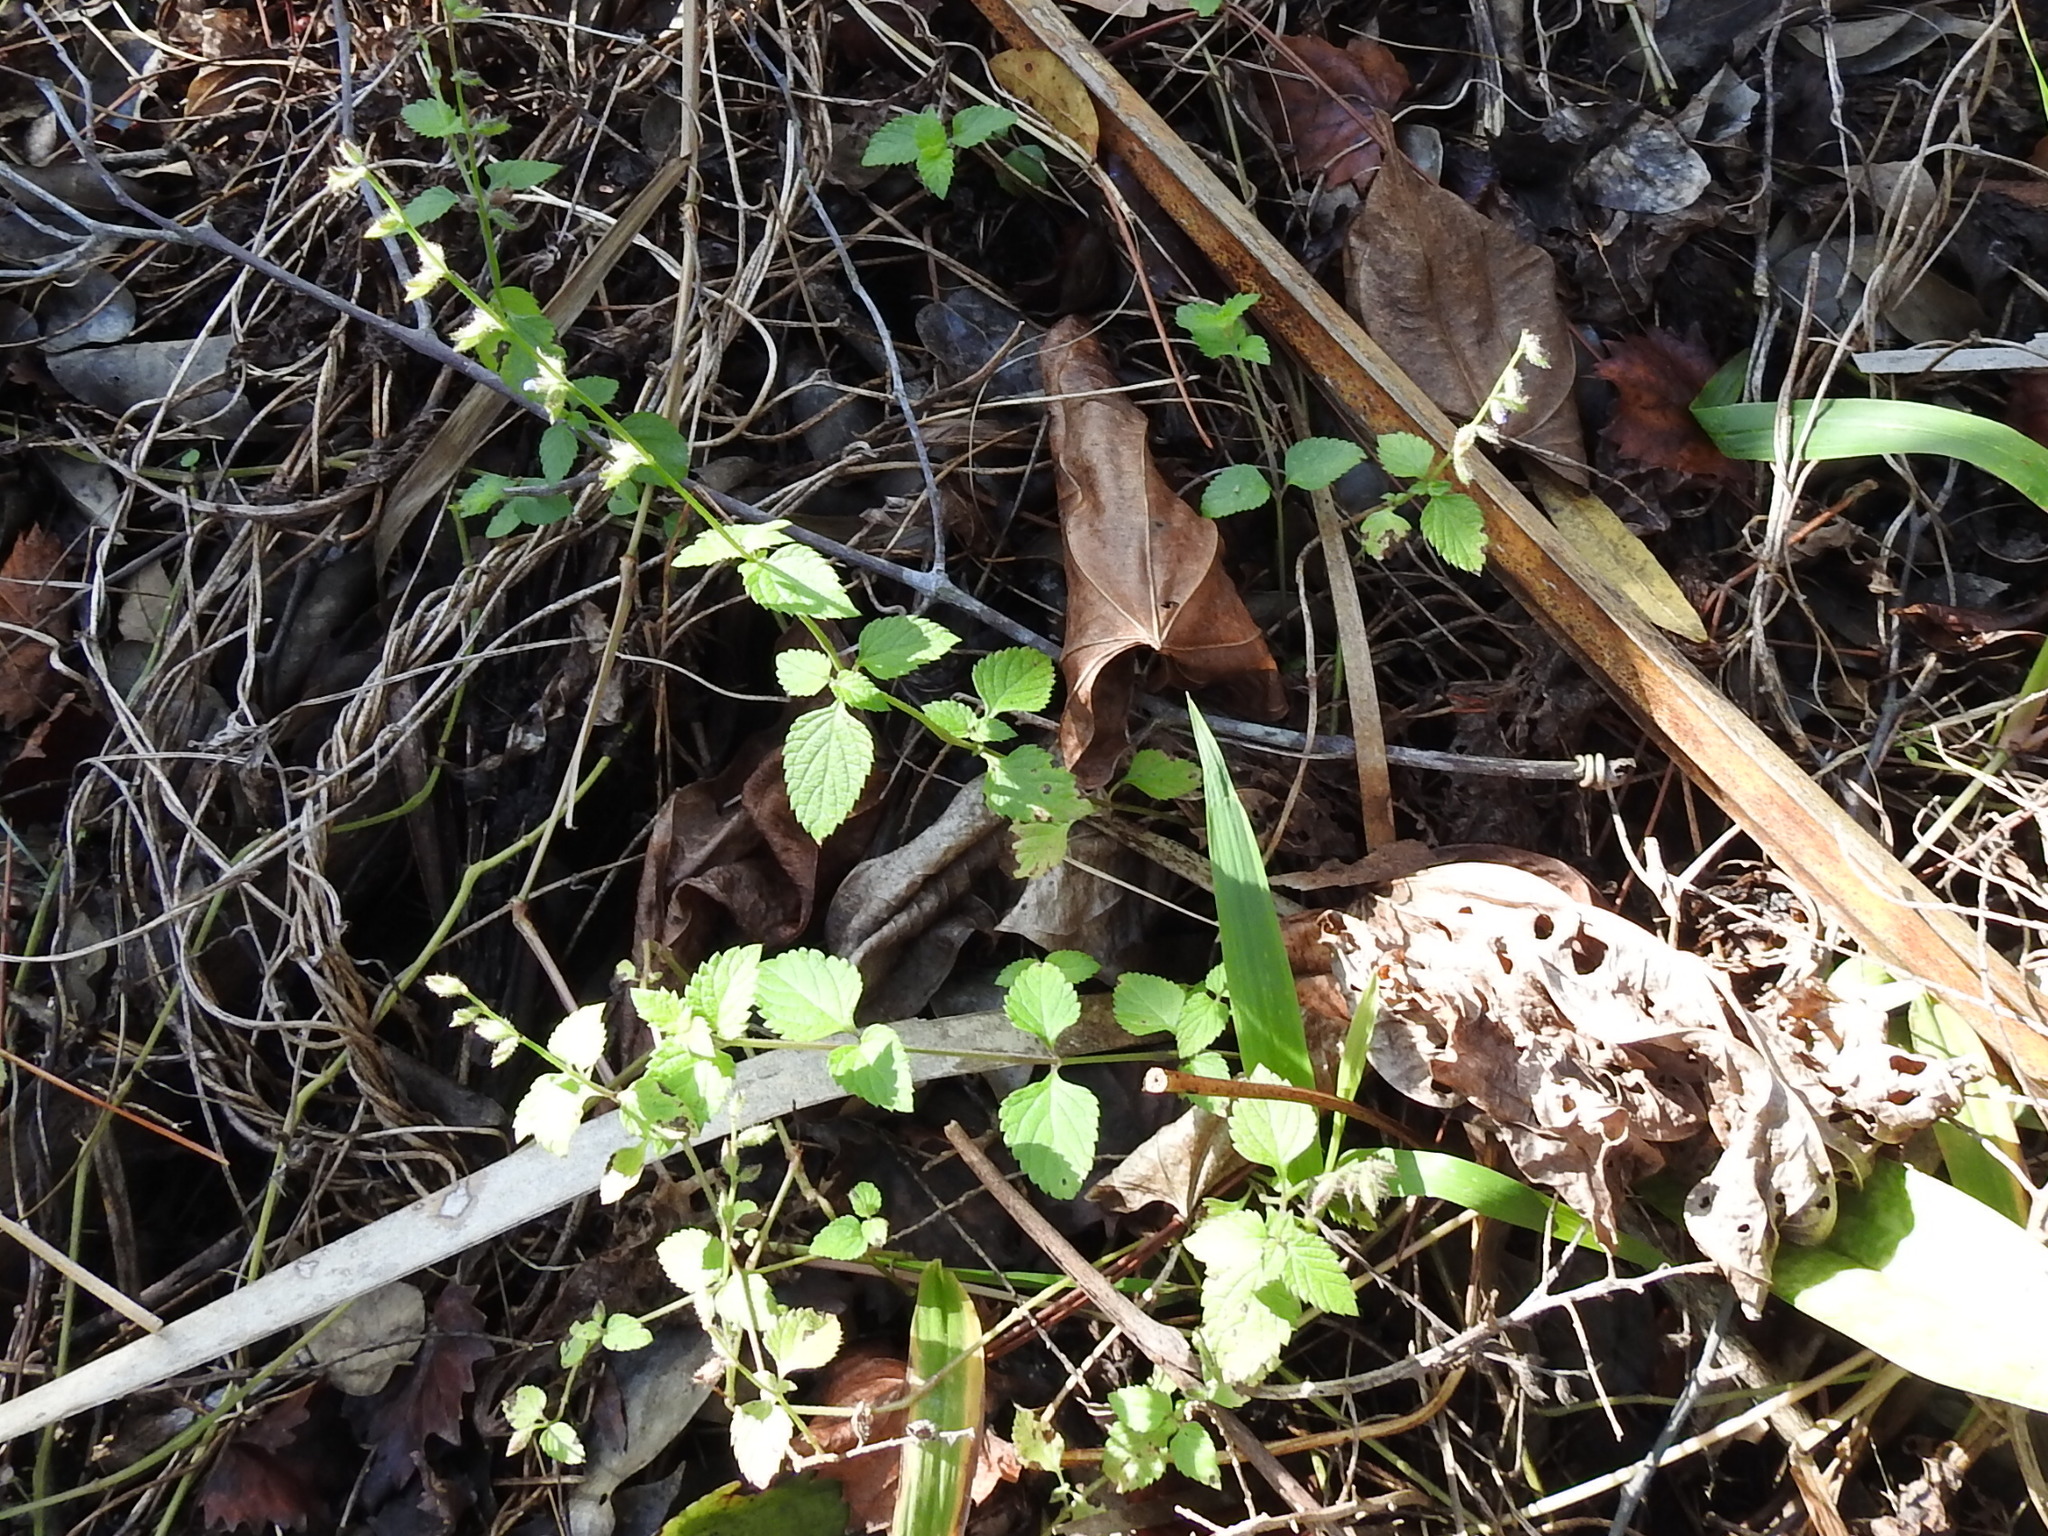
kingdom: Plantae
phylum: Tracheophyta
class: Magnoliopsida
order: Lamiales
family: Lamiaceae
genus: Salvia
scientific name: Salvia misella
